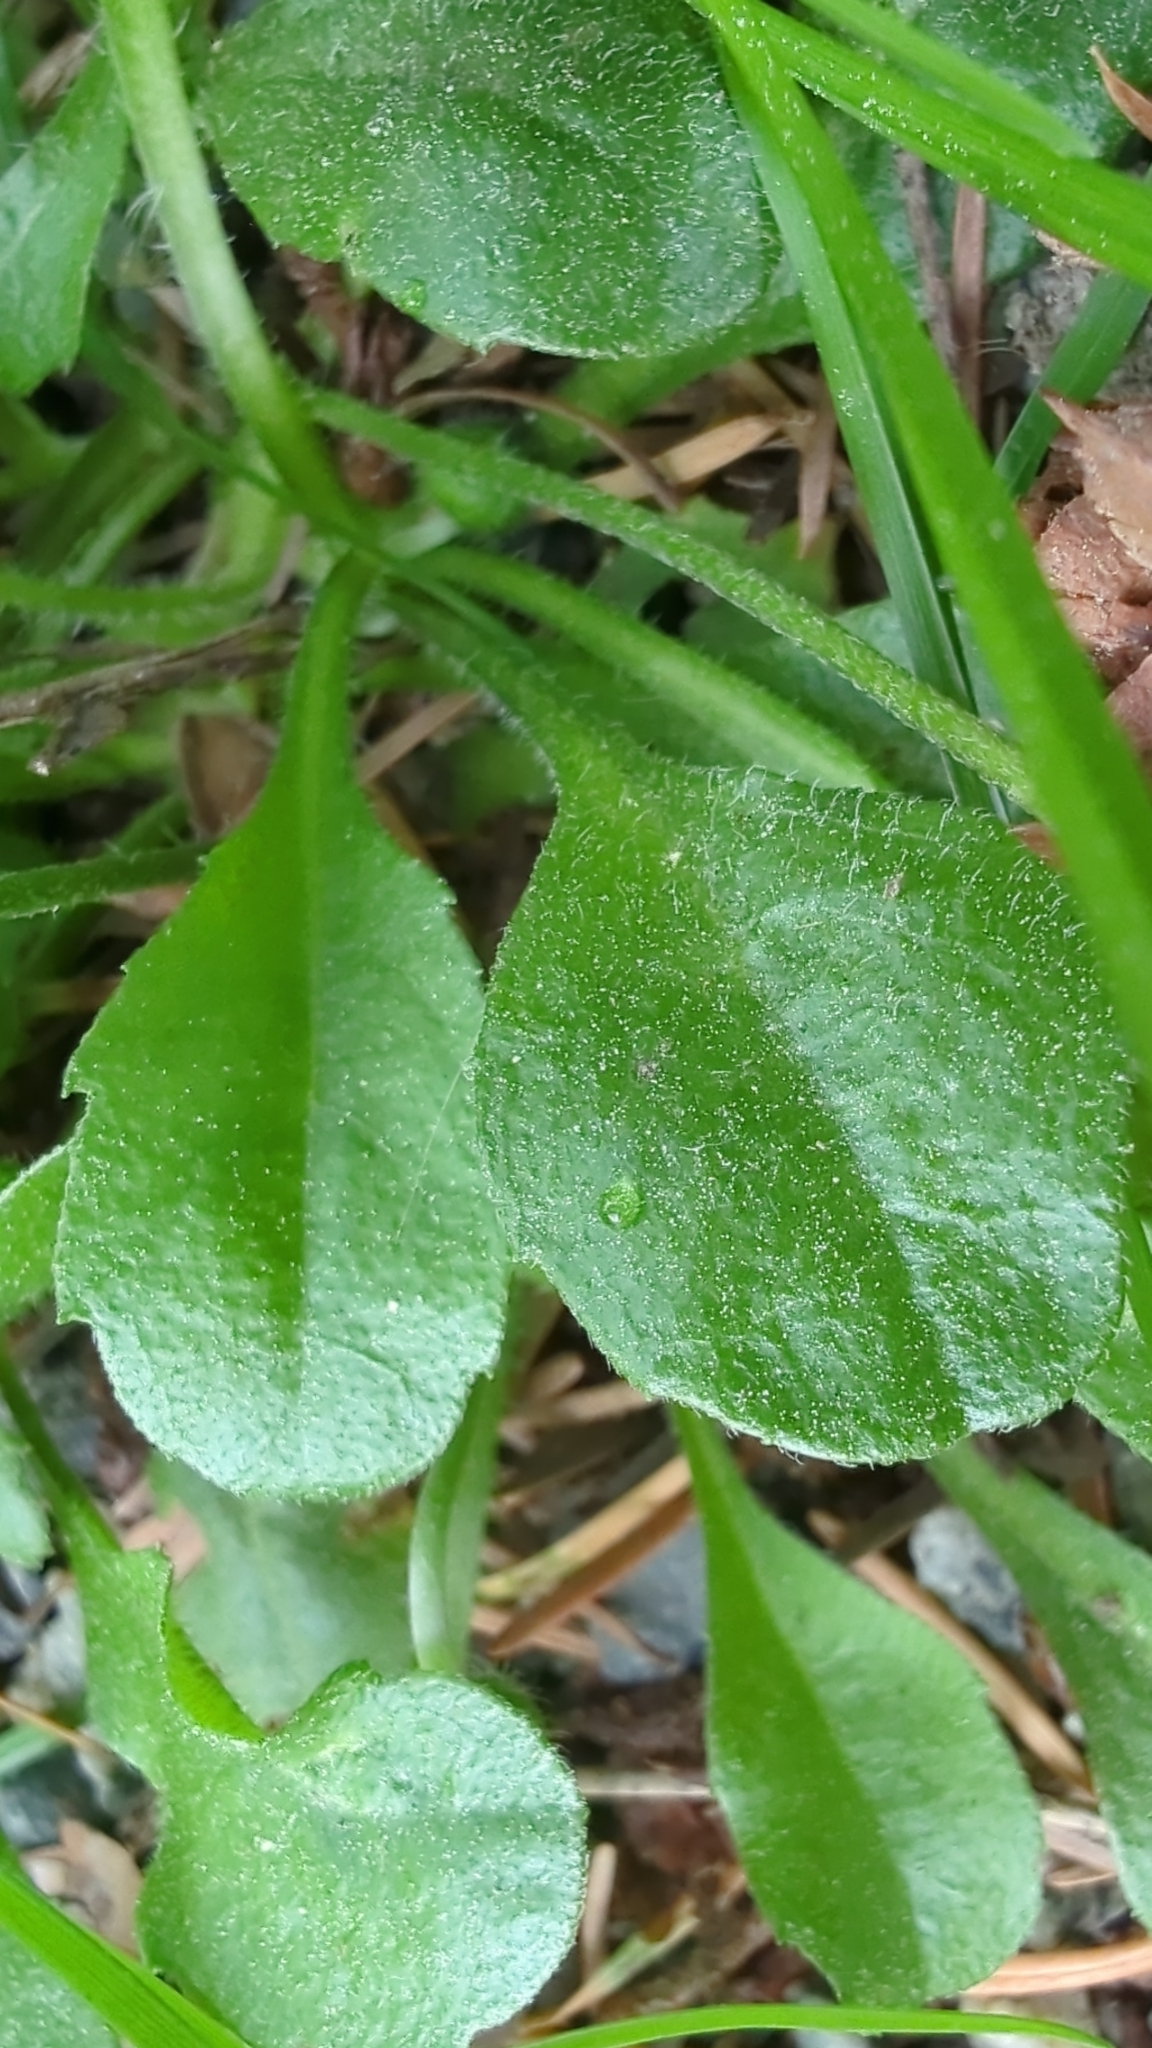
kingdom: Plantae
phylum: Tracheophyta
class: Magnoliopsida
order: Asterales
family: Asteraceae
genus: Bellis
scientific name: Bellis perennis
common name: Lawndaisy
